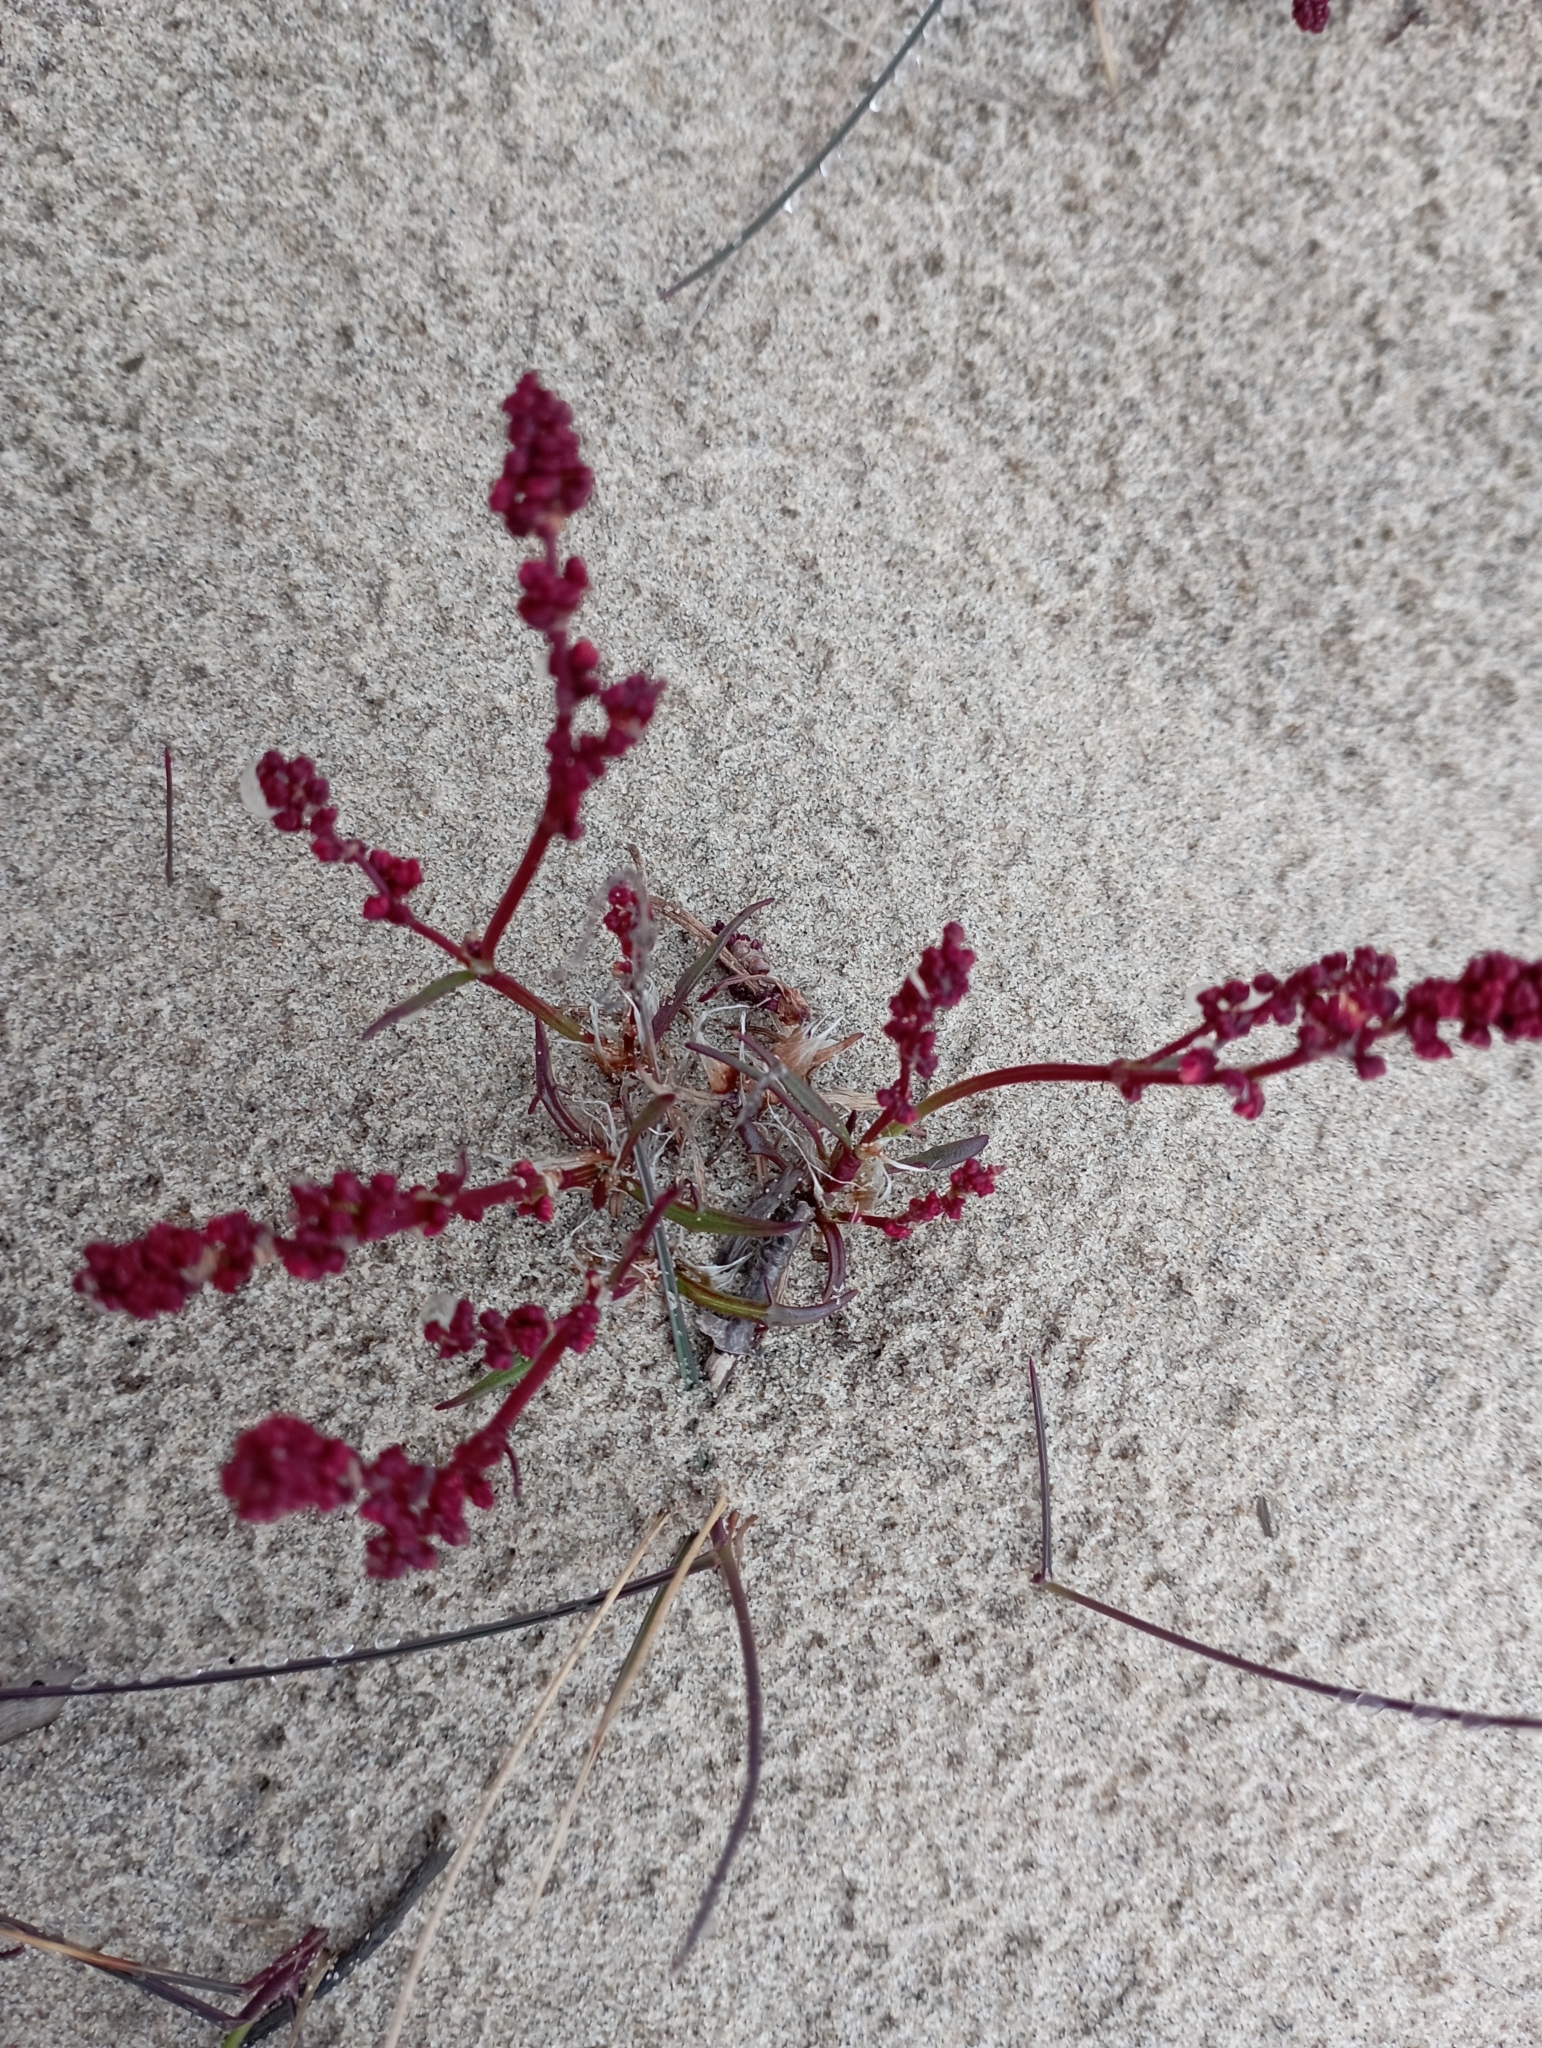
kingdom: Plantae
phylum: Tracheophyta
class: Magnoliopsida
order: Caryophyllales
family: Polygonaceae
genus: Rumex
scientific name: Rumex aureostigmatica
